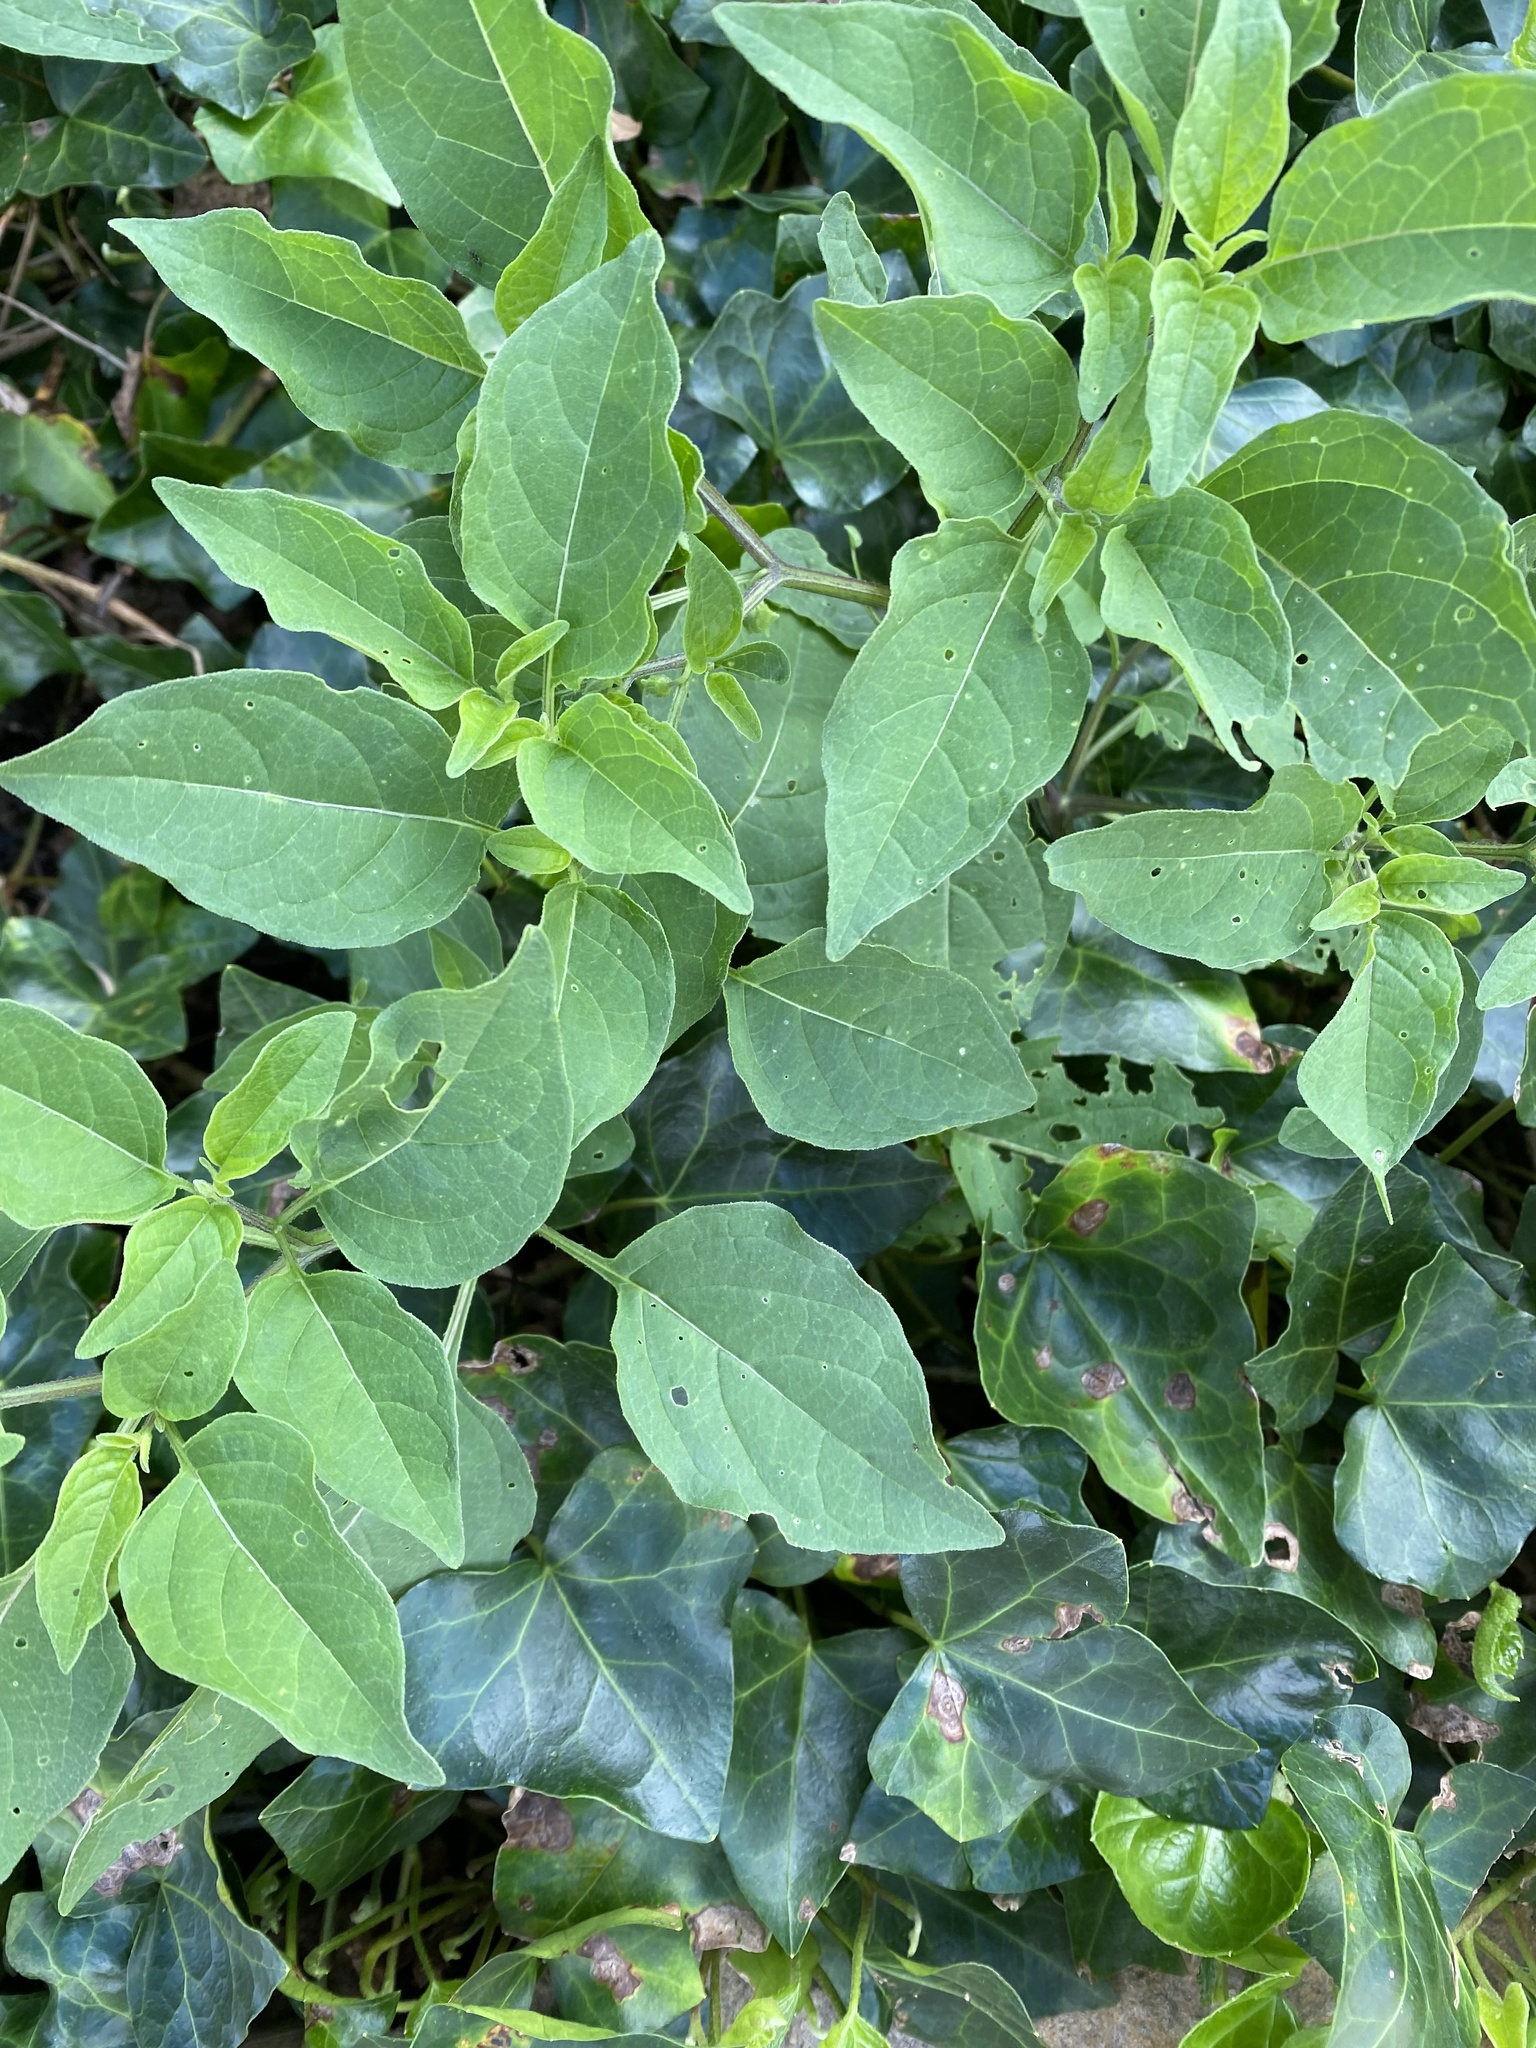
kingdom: Plantae
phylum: Tracheophyta
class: Magnoliopsida
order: Solanales
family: Solanaceae
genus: Physalis
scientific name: Physalis longifolia
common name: Common ground-cherry
